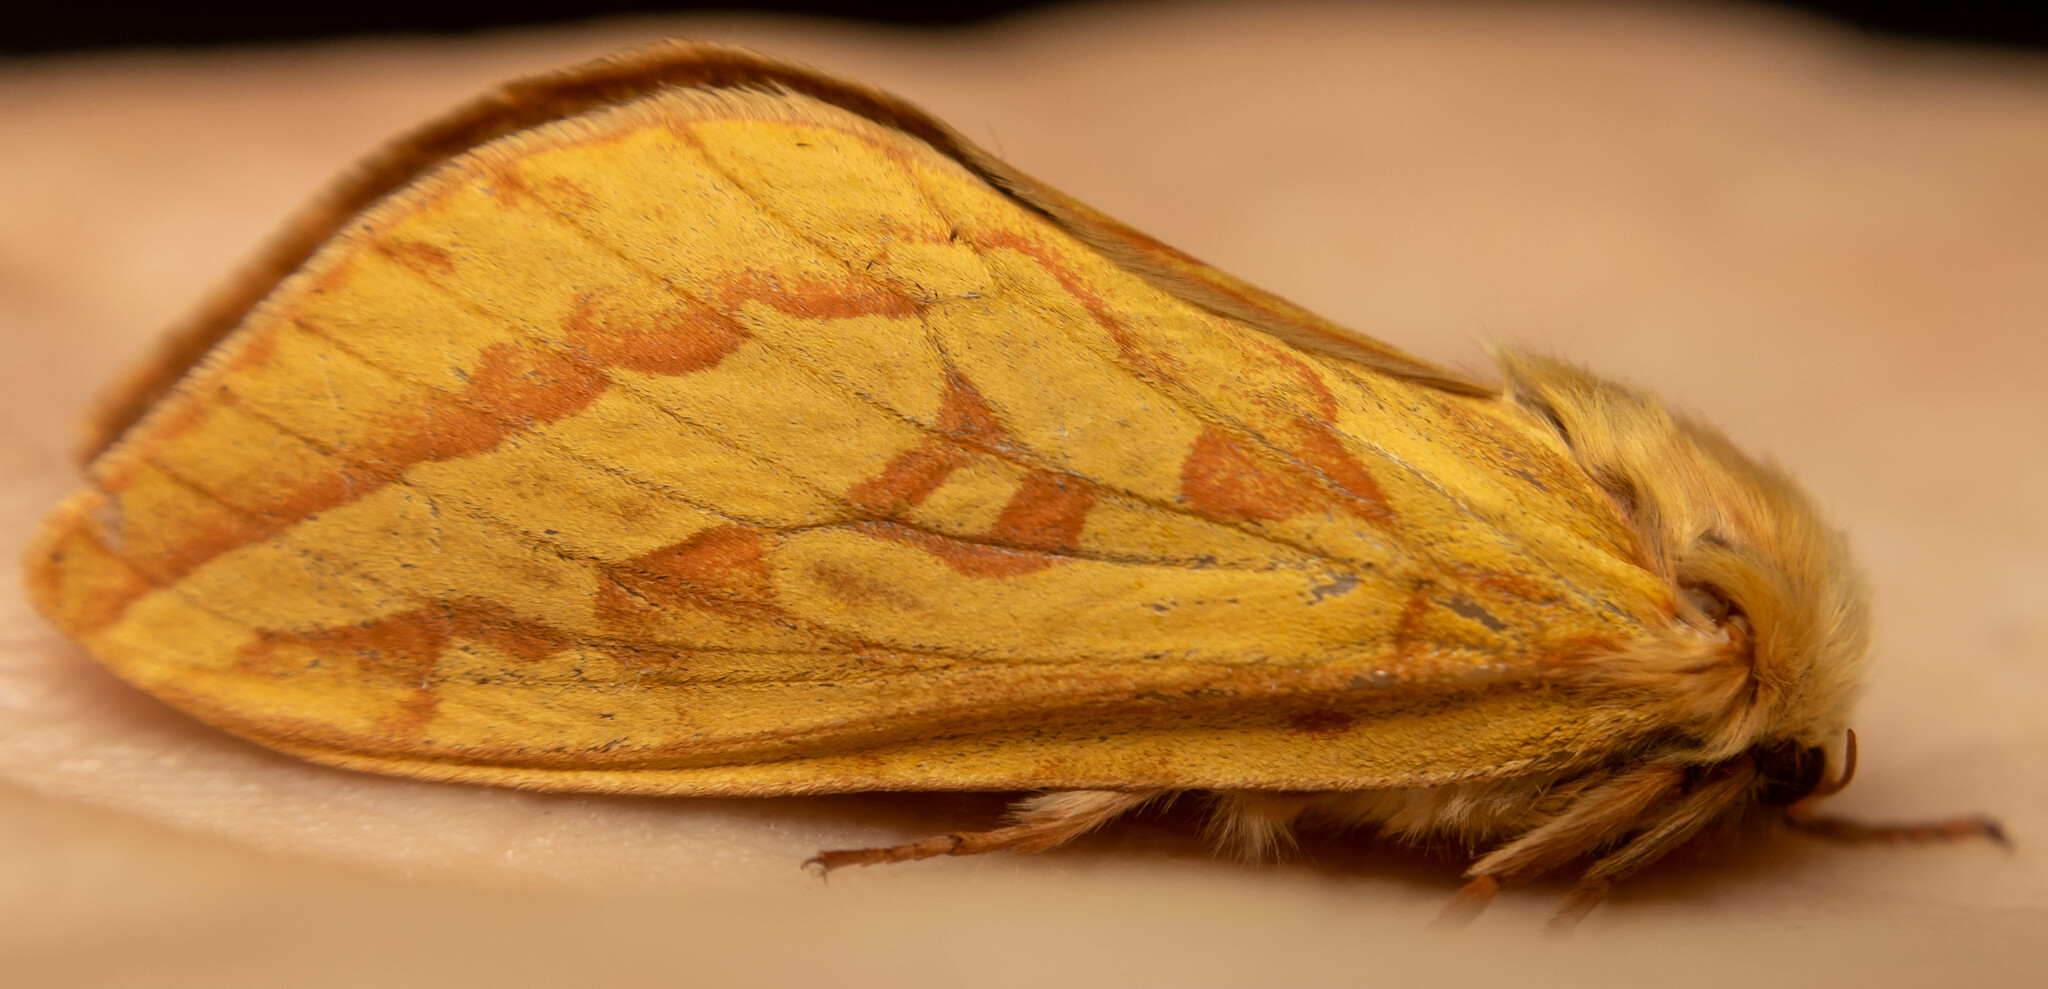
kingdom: Animalia
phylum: Arthropoda
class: Insecta
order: Lepidoptera
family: Hepialidae
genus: Hepialus
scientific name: Hepialus humuli
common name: Ghost moth
